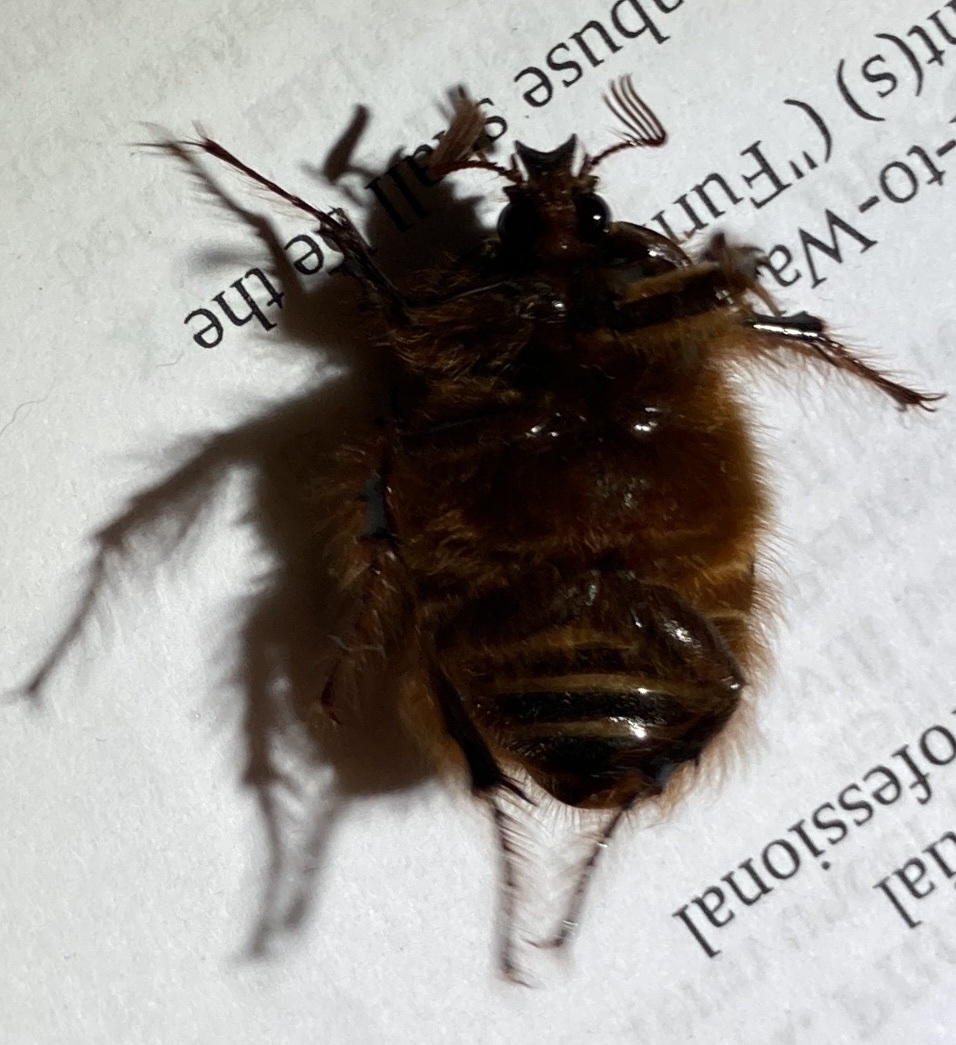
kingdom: Animalia
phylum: Arthropoda
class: Insecta
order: Coleoptera
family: Pleocomidae
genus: Pleocoma
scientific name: Pleocoma fimbriata
